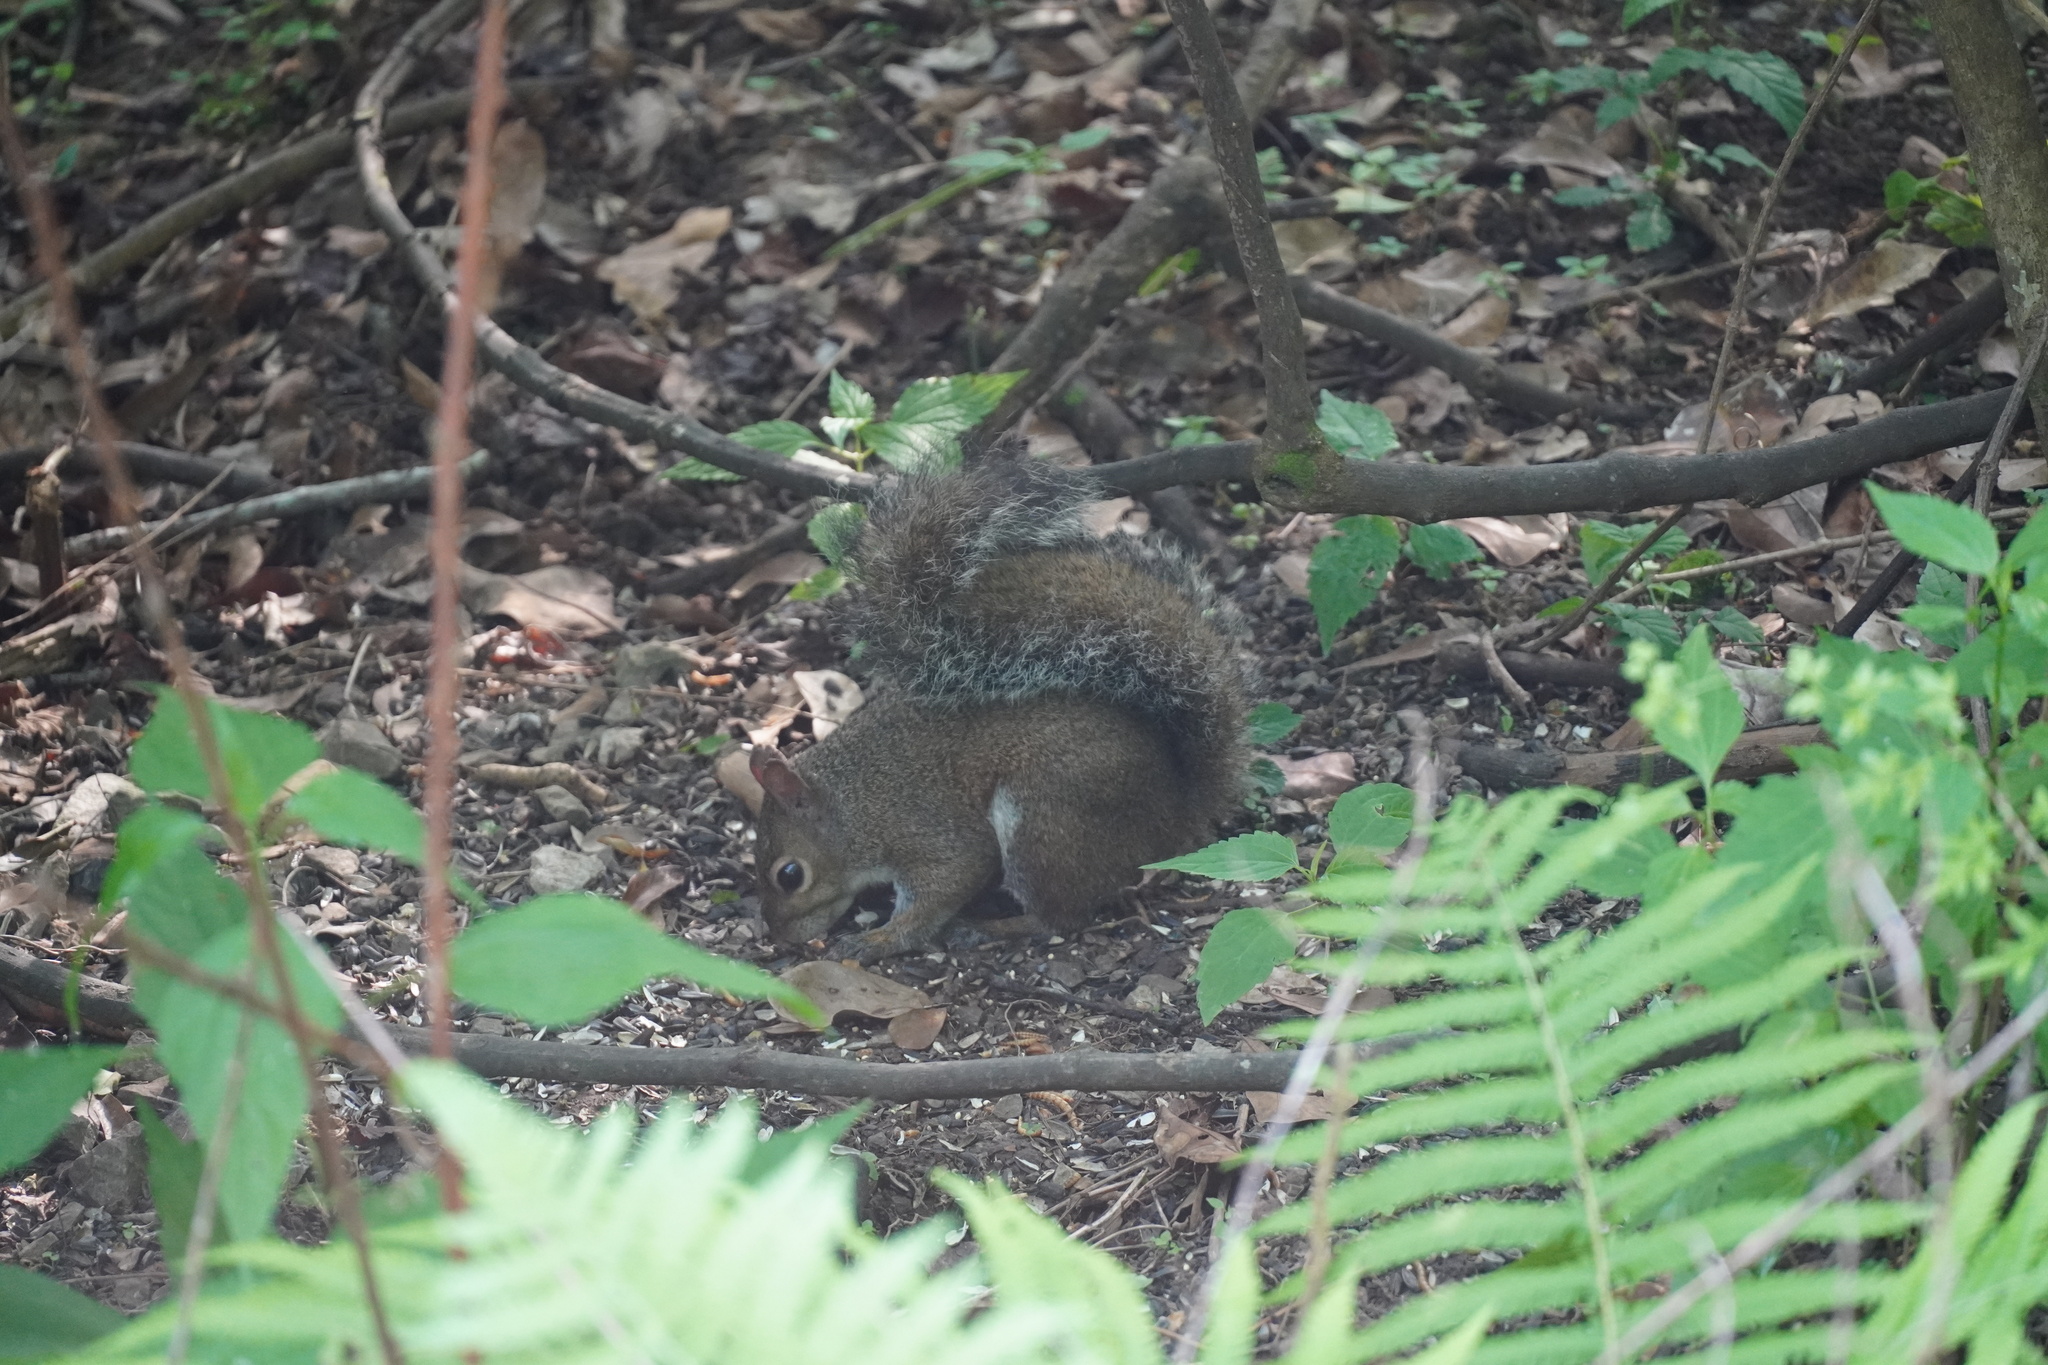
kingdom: Animalia
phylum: Chordata
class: Mammalia
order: Rodentia
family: Sciuridae
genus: Sciurus
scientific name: Sciurus carolinensis
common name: Eastern gray squirrel
